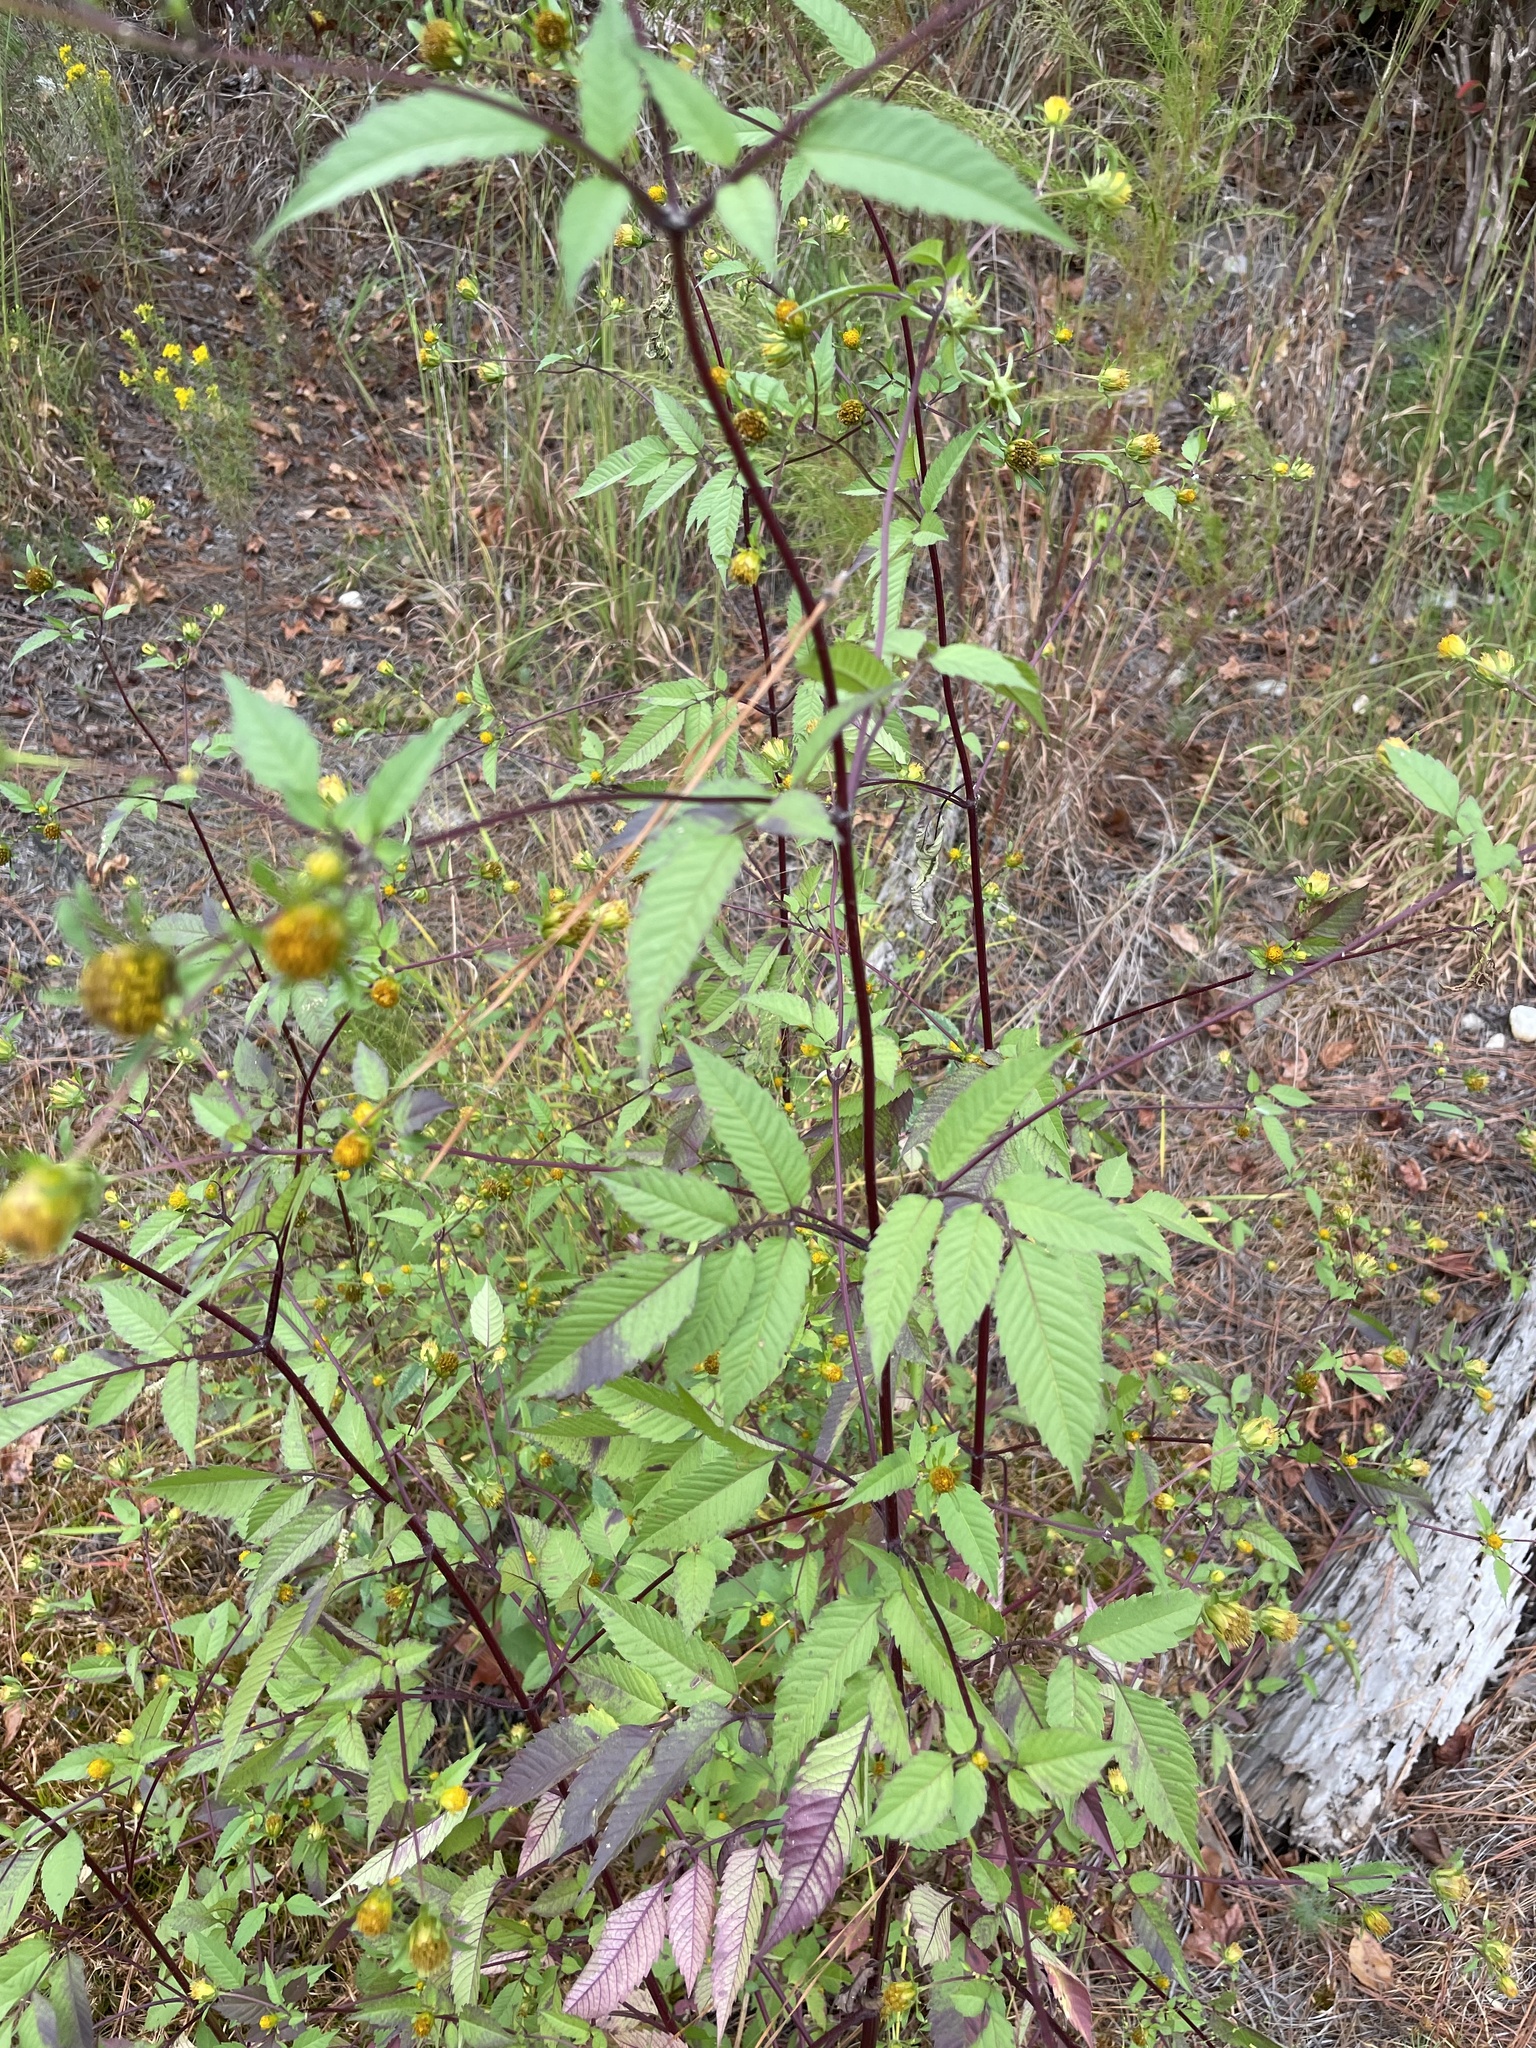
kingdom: Plantae
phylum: Tracheophyta
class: Magnoliopsida
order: Asterales
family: Asteraceae
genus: Bidens
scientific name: Bidens frondosa
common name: Beggarticks
